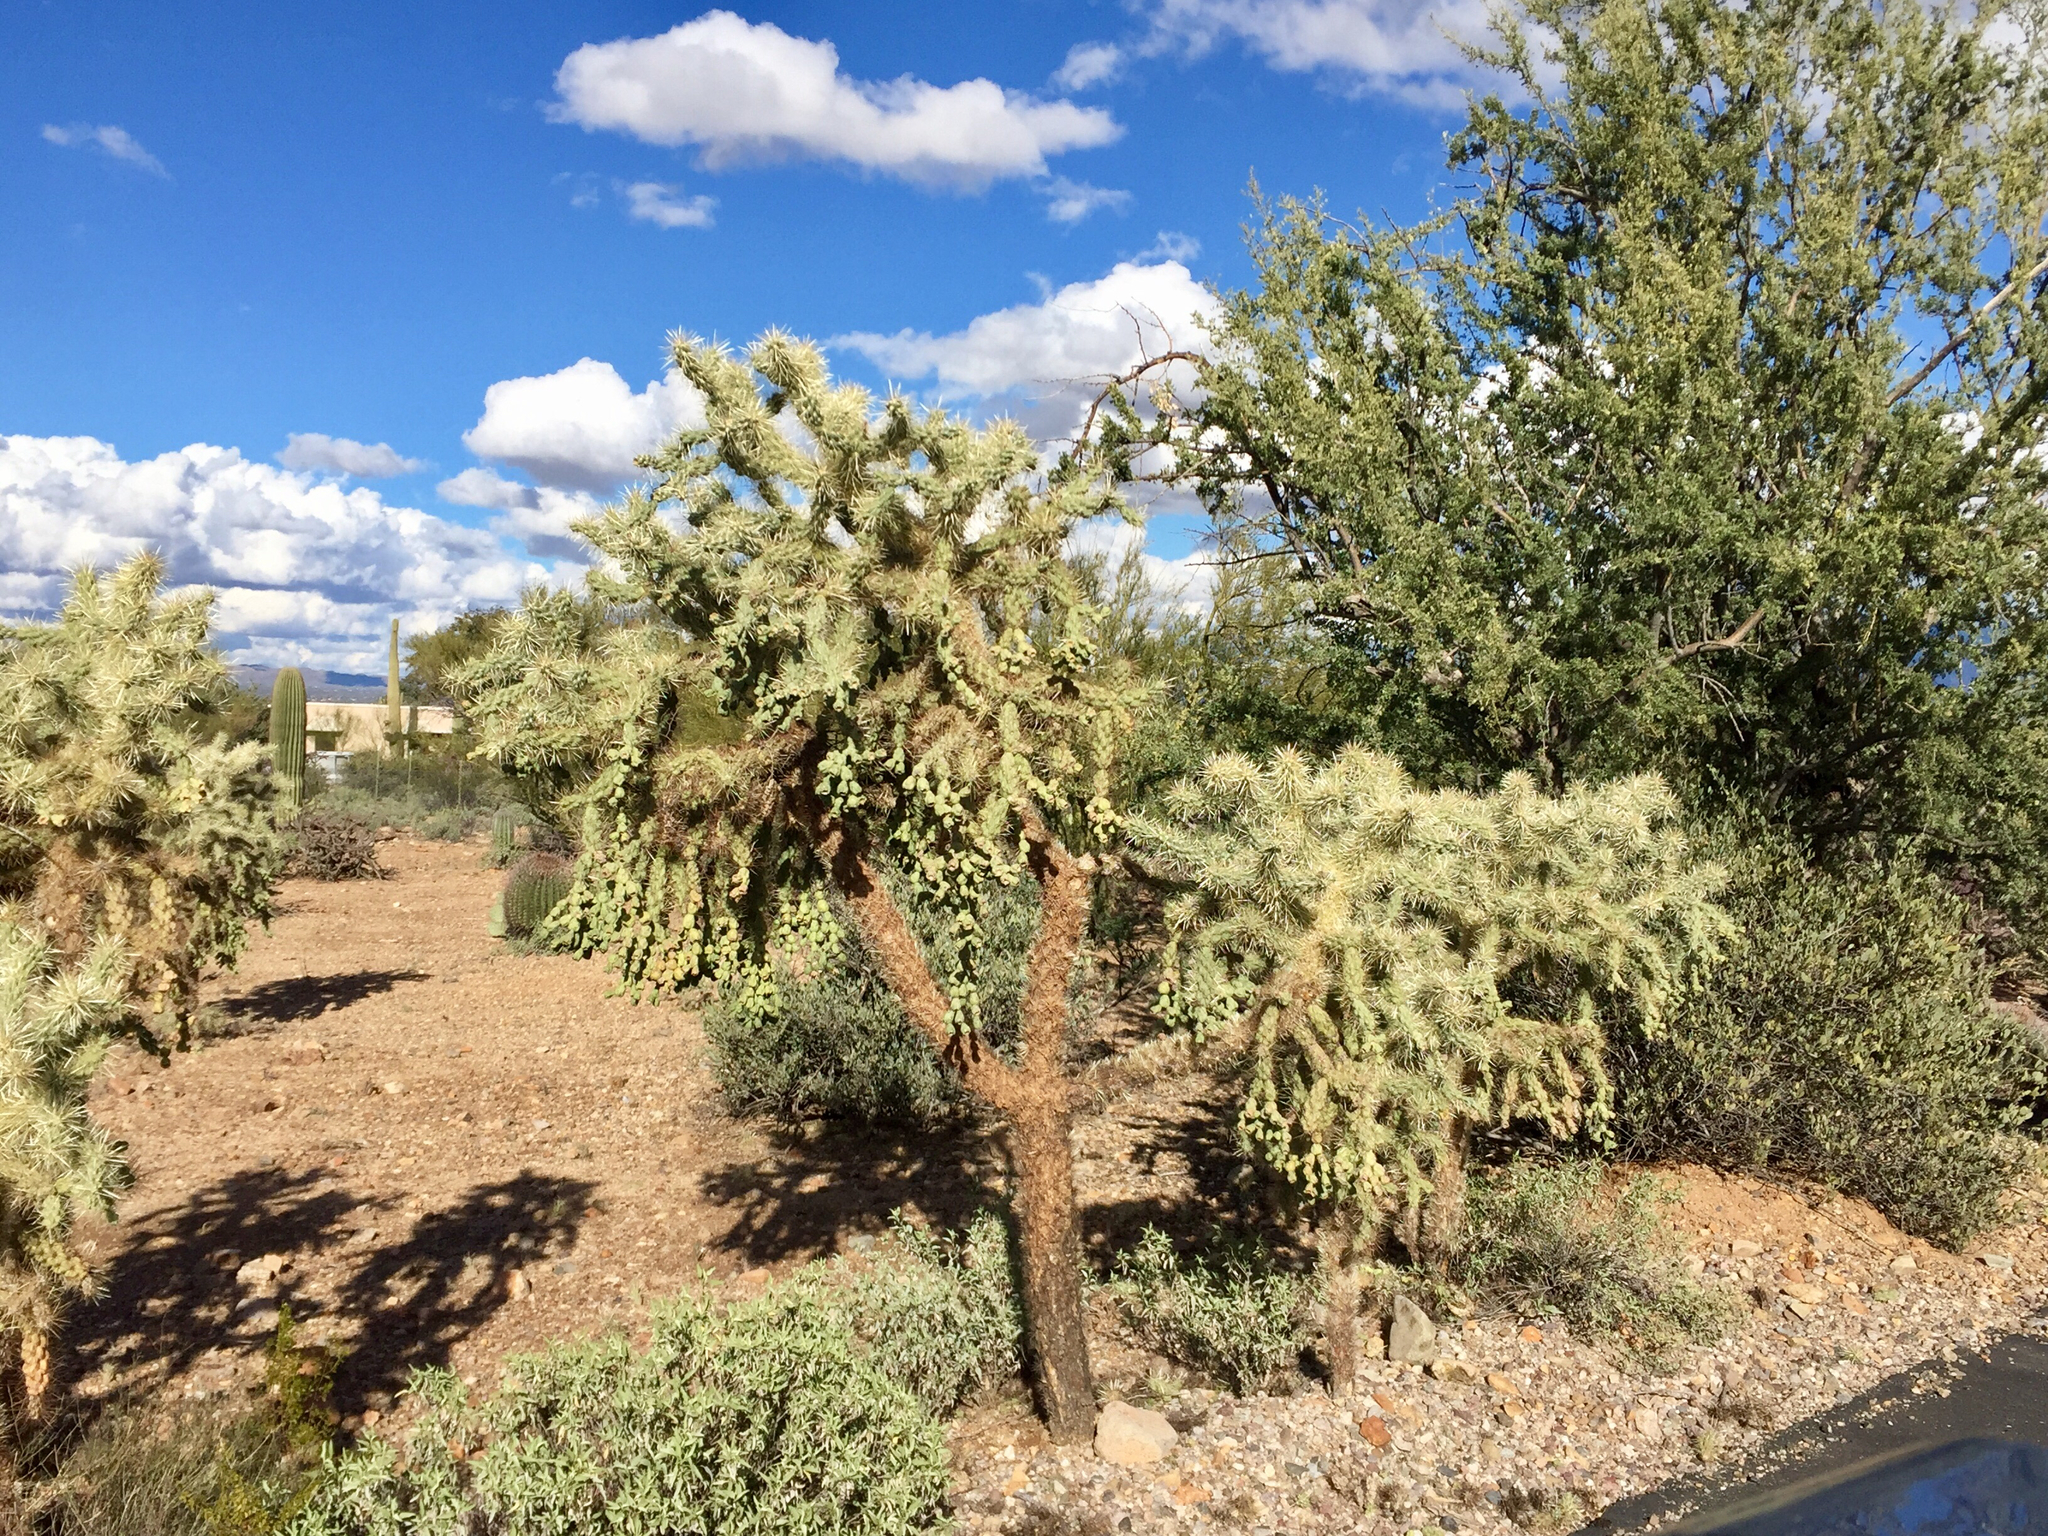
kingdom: Plantae
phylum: Tracheophyta
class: Magnoliopsida
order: Caryophyllales
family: Cactaceae
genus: Cylindropuntia
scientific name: Cylindropuntia fulgida
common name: Jumping cholla
